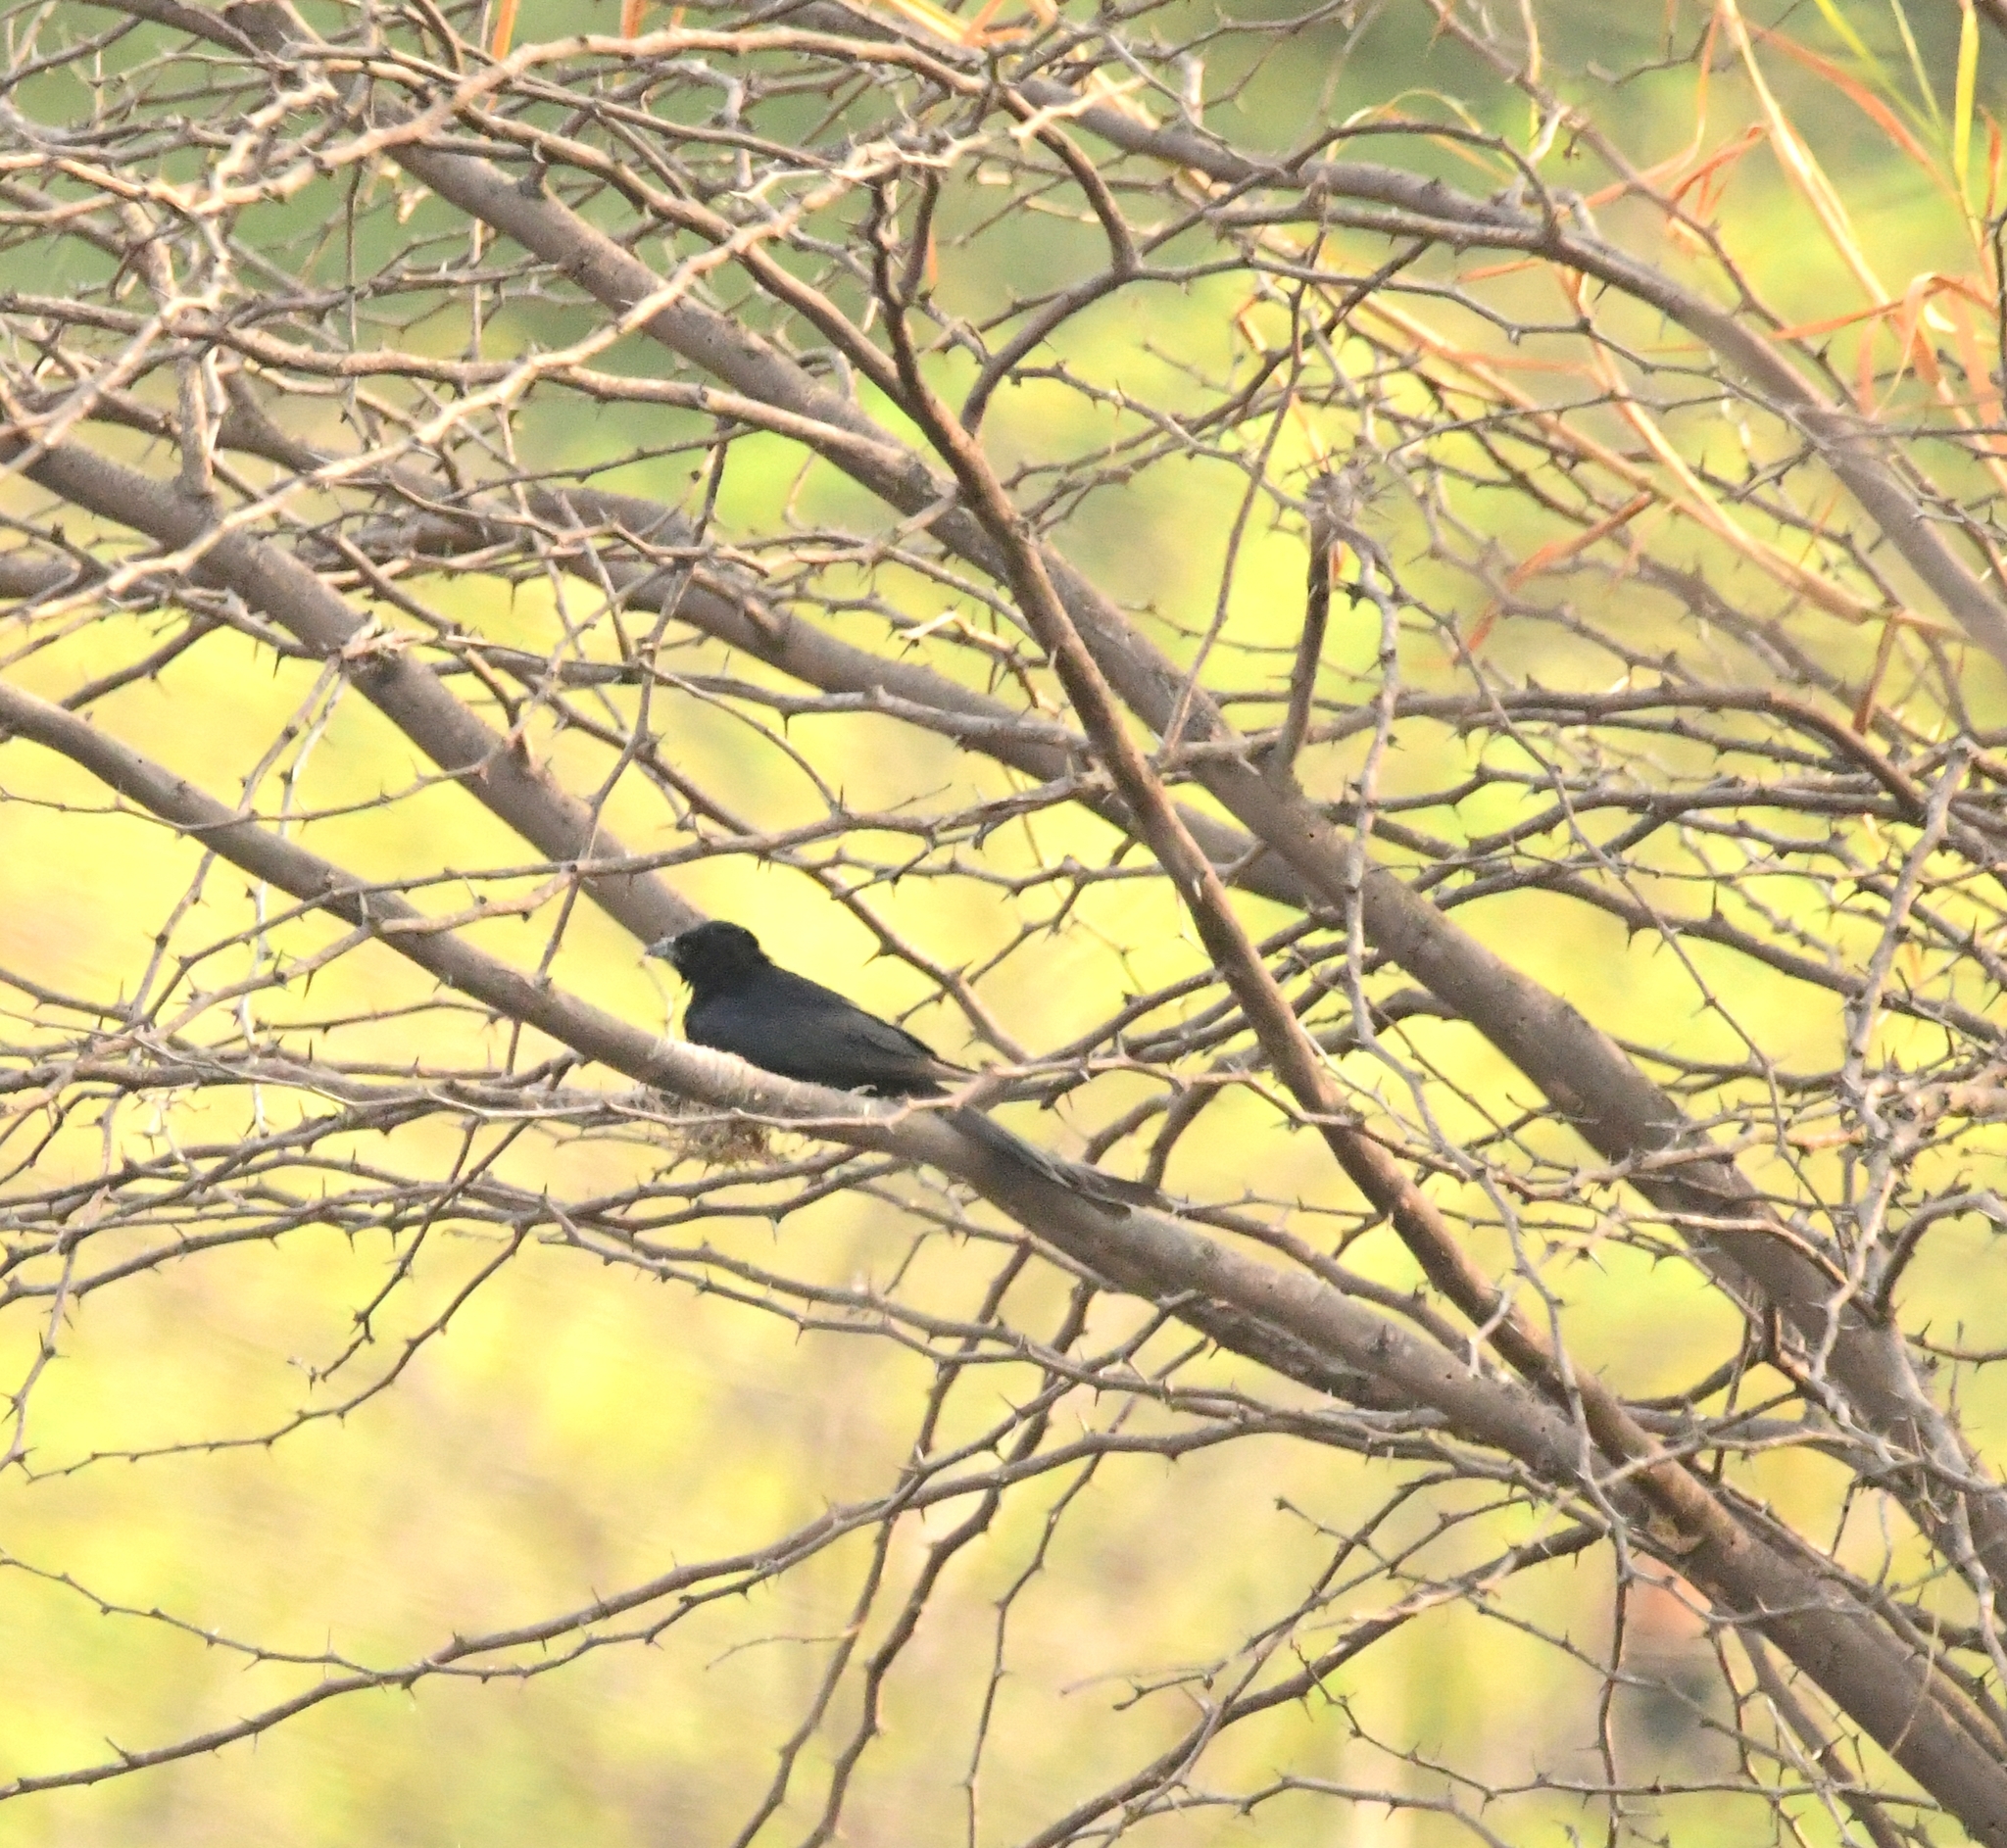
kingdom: Animalia
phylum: Chordata
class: Aves
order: Passeriformes
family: Dicruridae
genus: Dicrurus
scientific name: Dicrurus macrocercus
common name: Black drongo
